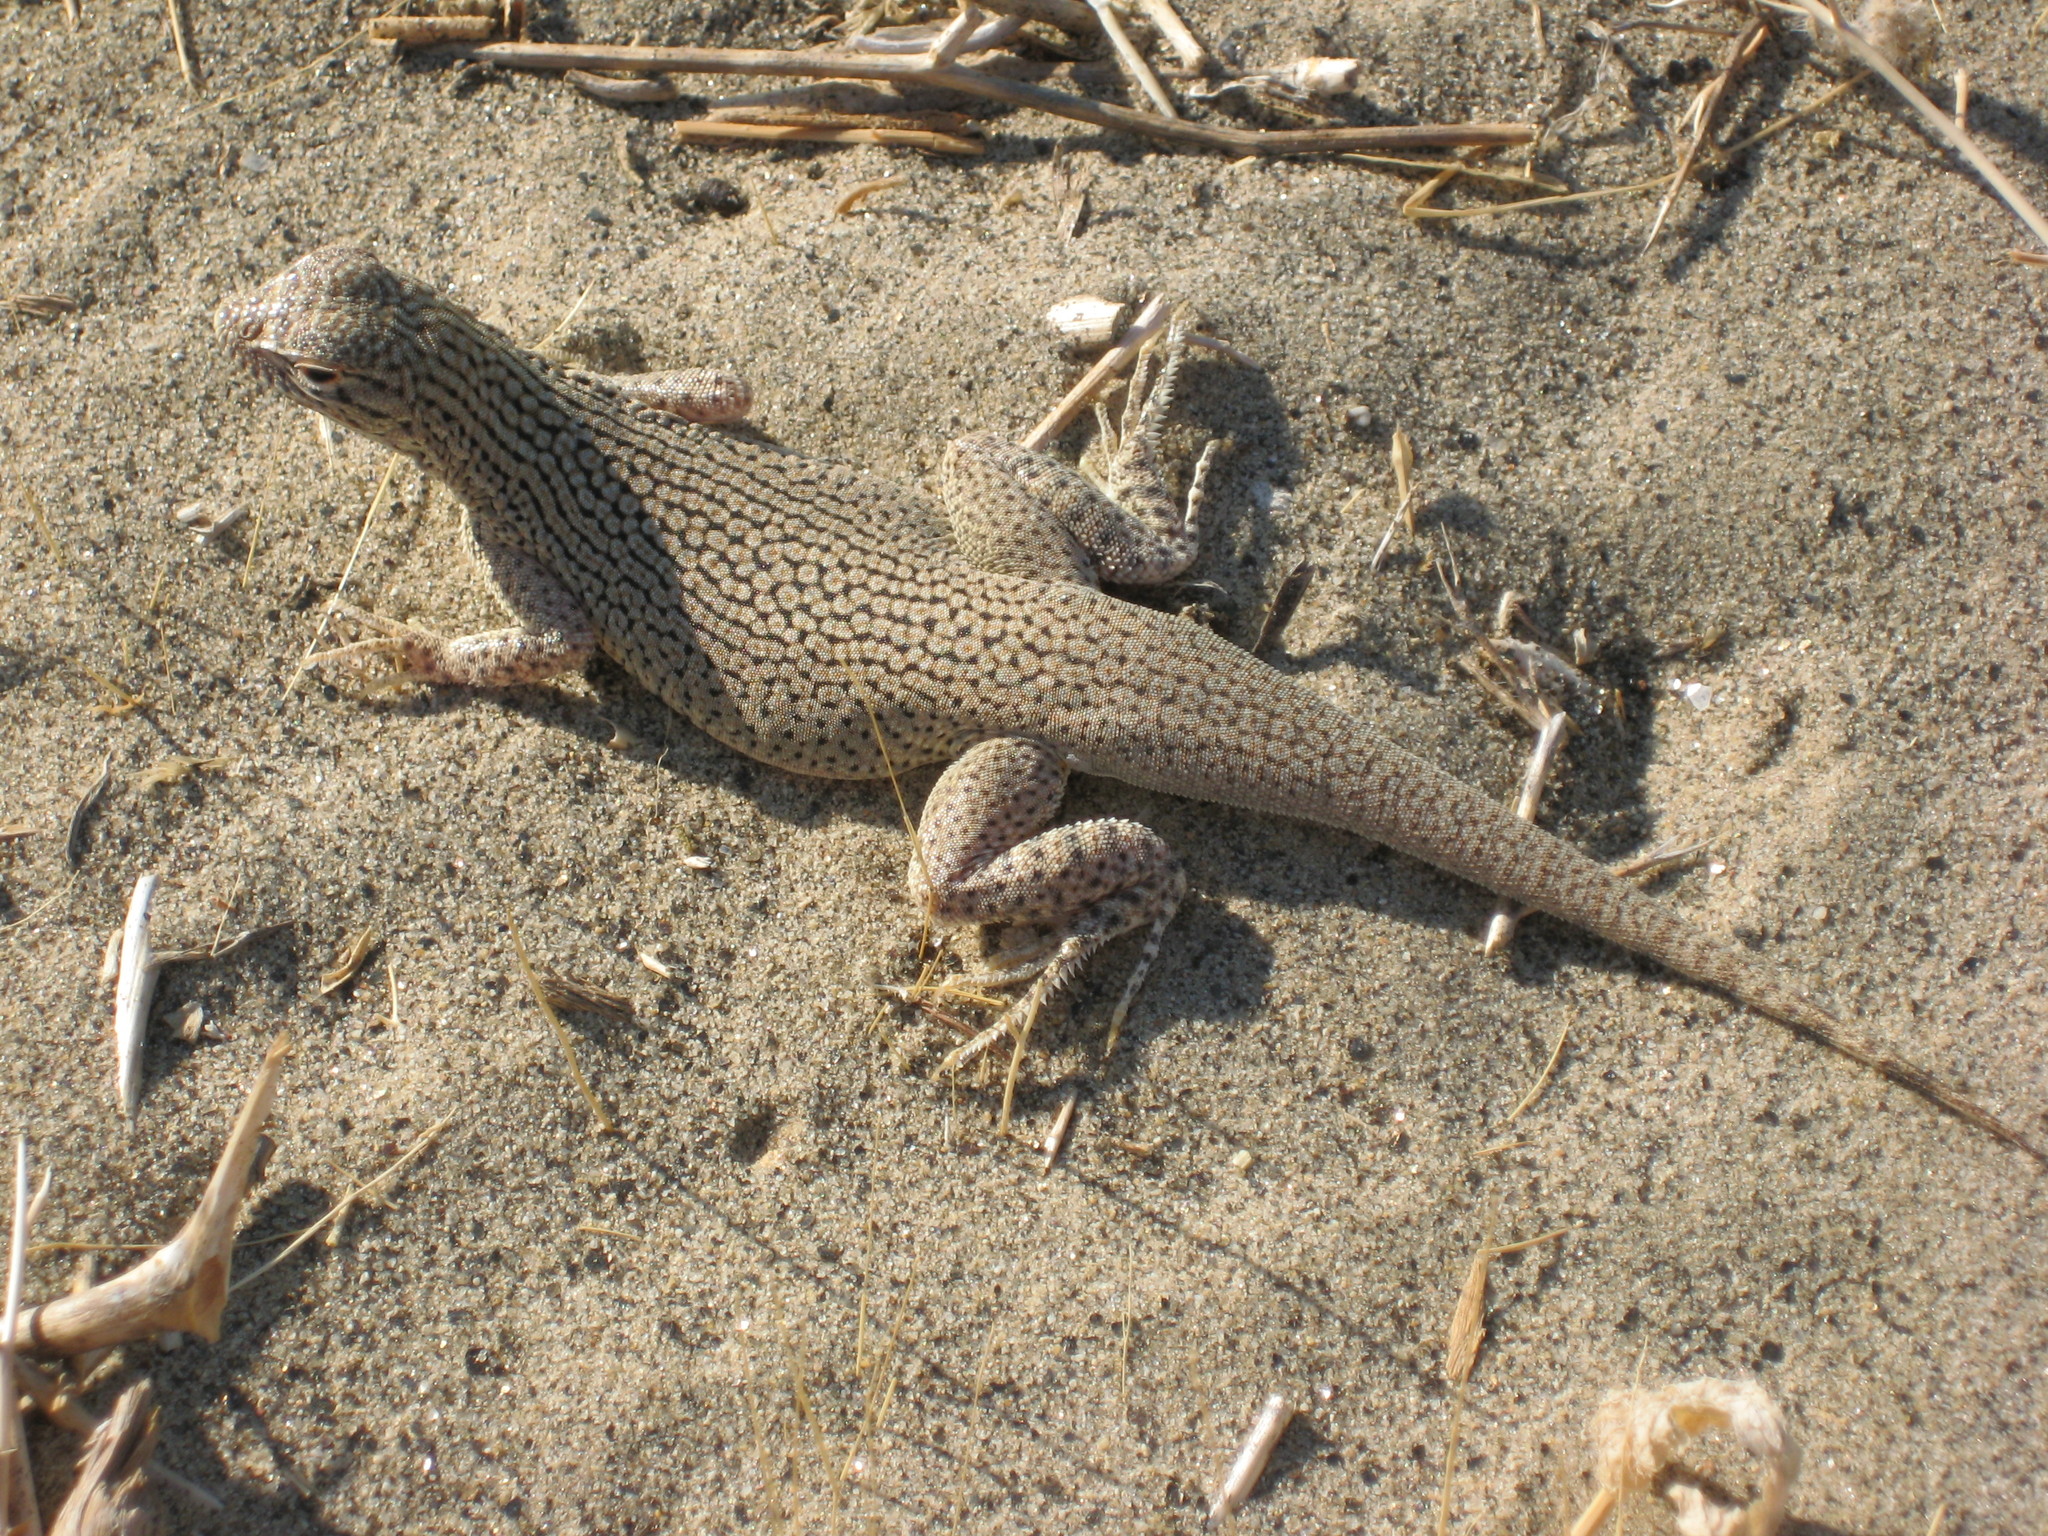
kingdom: Animalia
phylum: Chordata
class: Squamata
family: Phrynosomatidae
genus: Uma
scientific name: Uma notata
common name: Colorado desert fringe-toed lizard
